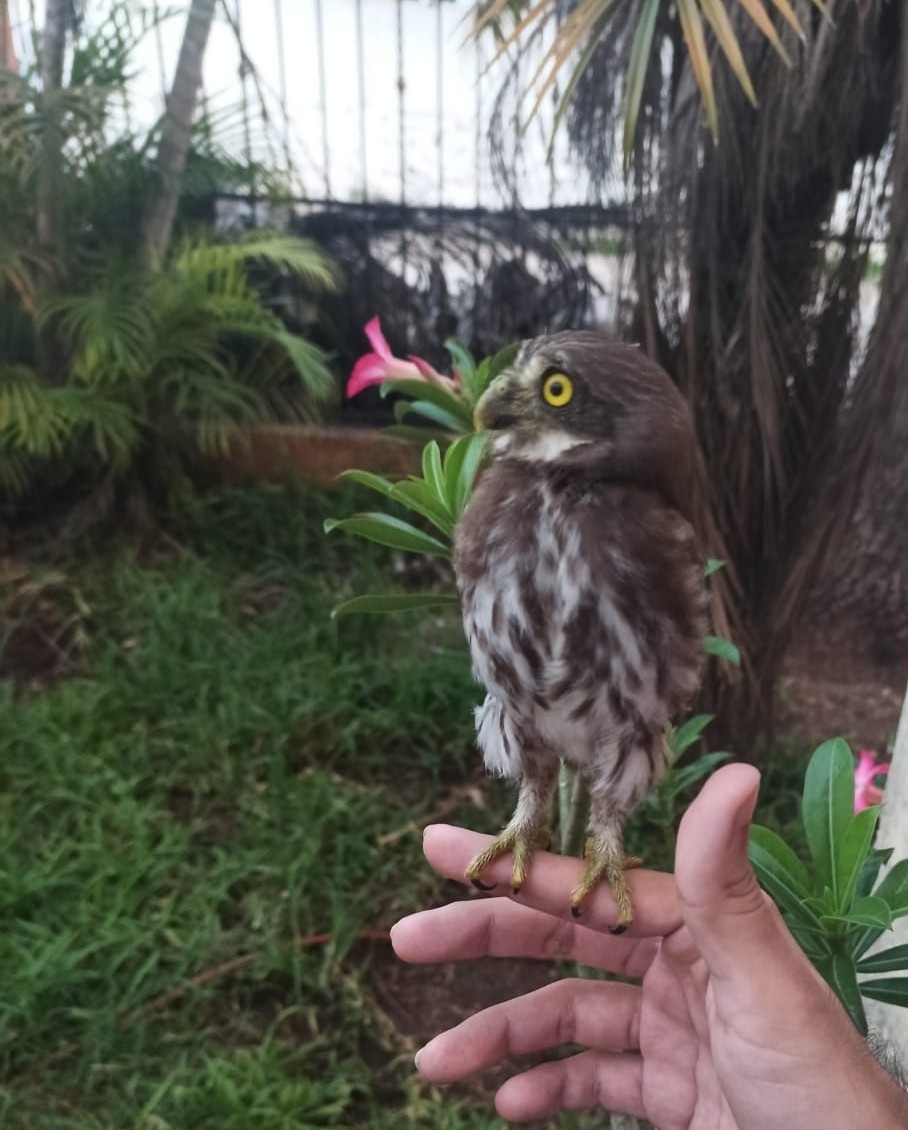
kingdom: Animalia
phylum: Chordata
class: Aves
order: Strigiformes
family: Strigidae
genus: Glaucidium
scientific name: Glaucidium brasilianum
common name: Ferruginous pygmy-owl
